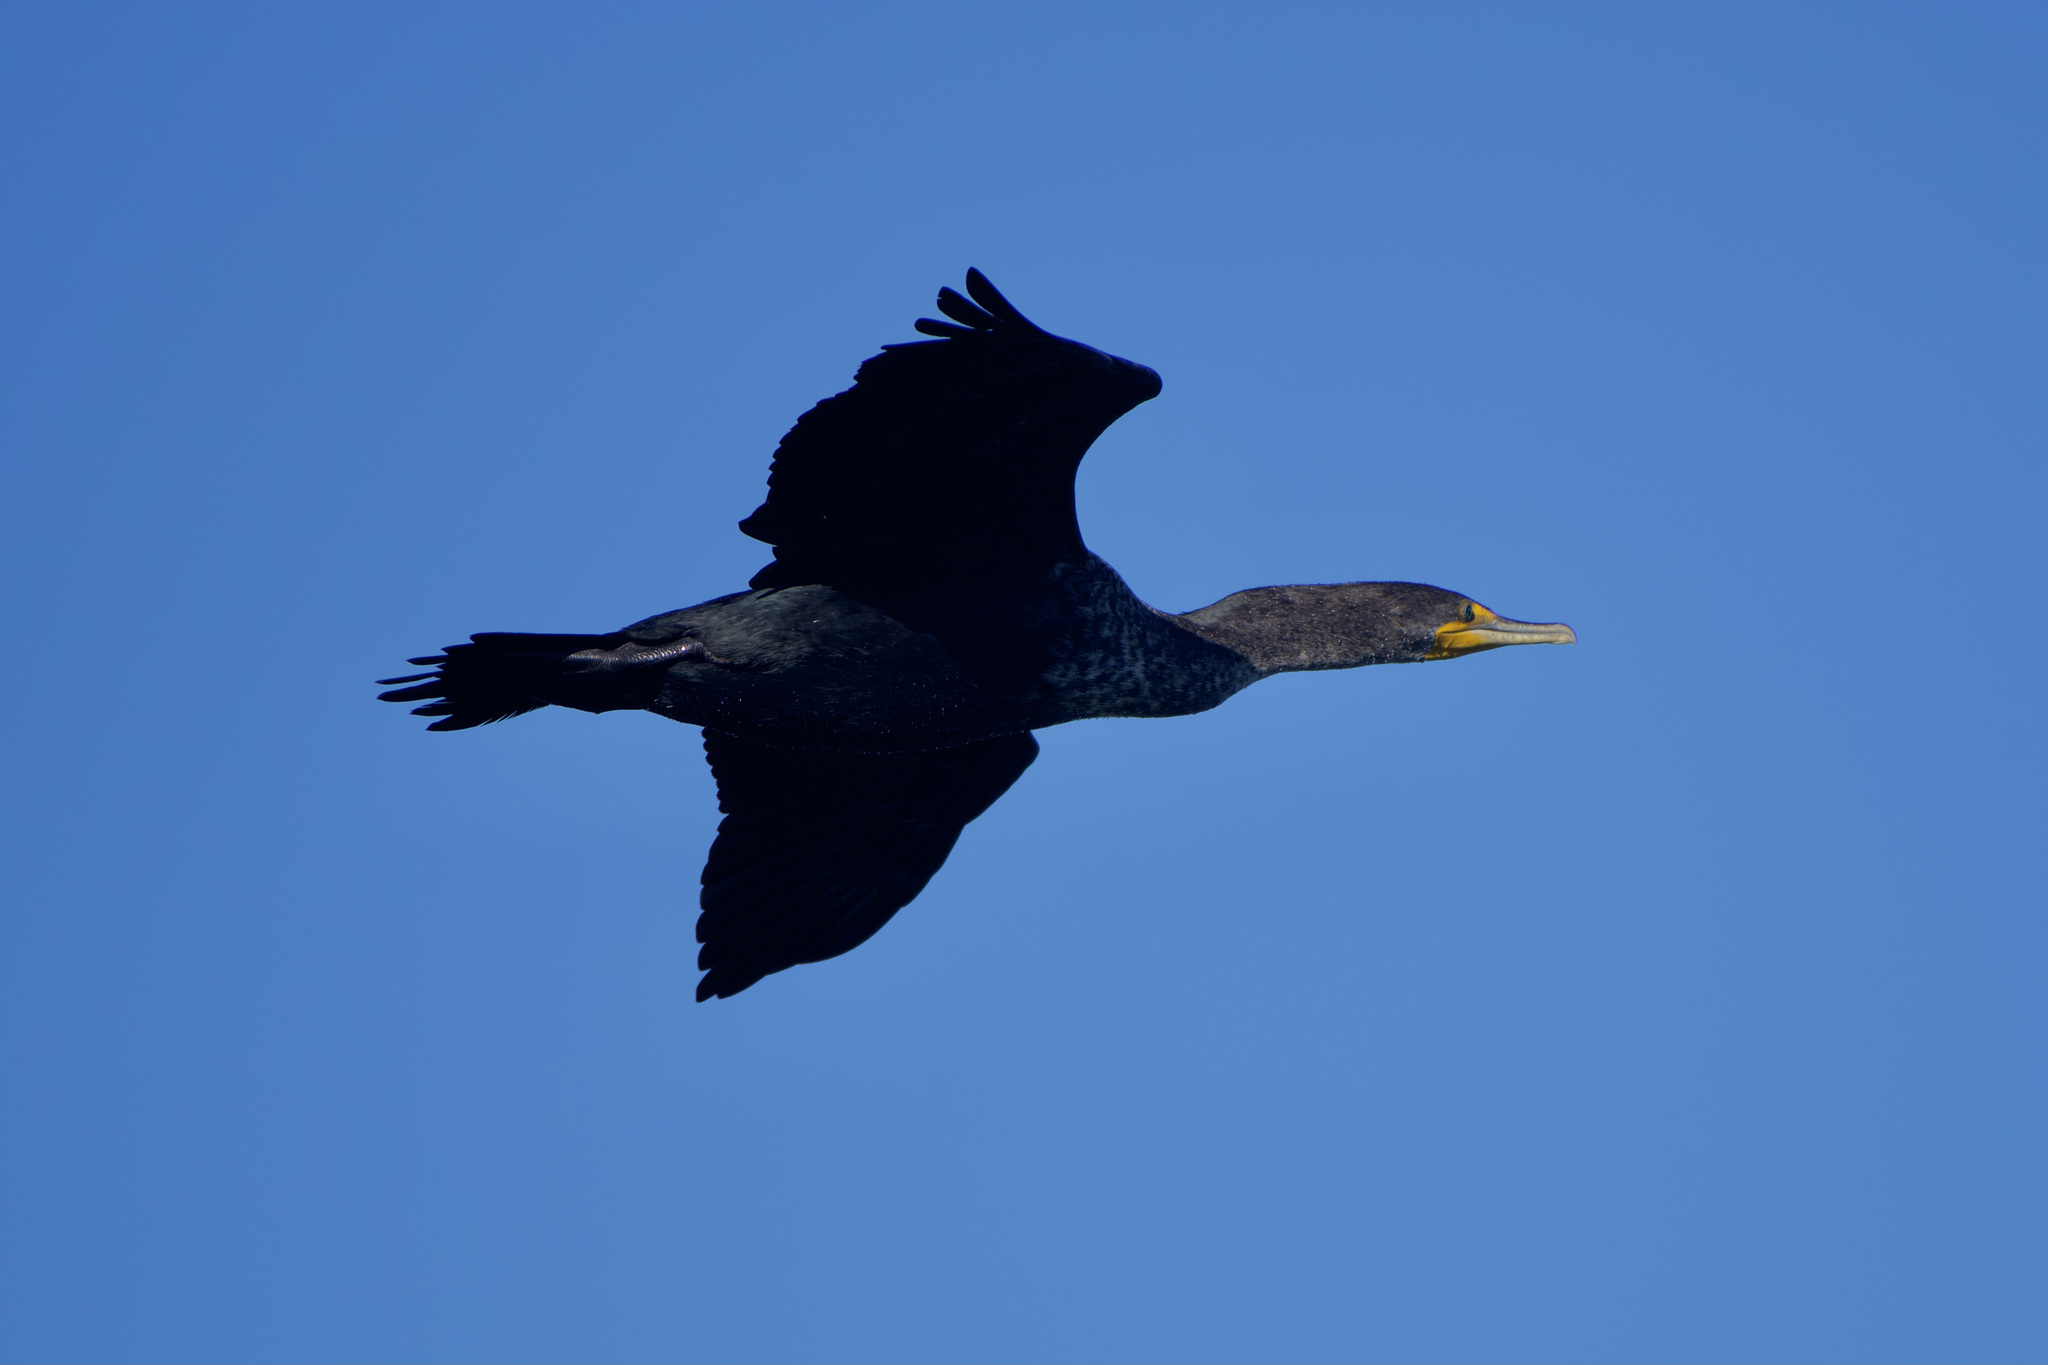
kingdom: Animalia
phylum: Chordata
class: Aves
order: Suliformes
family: Phalacrocoracidae
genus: Phalacrocorax
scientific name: Phalacrocorax auritus
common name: Double-crested cormorant
